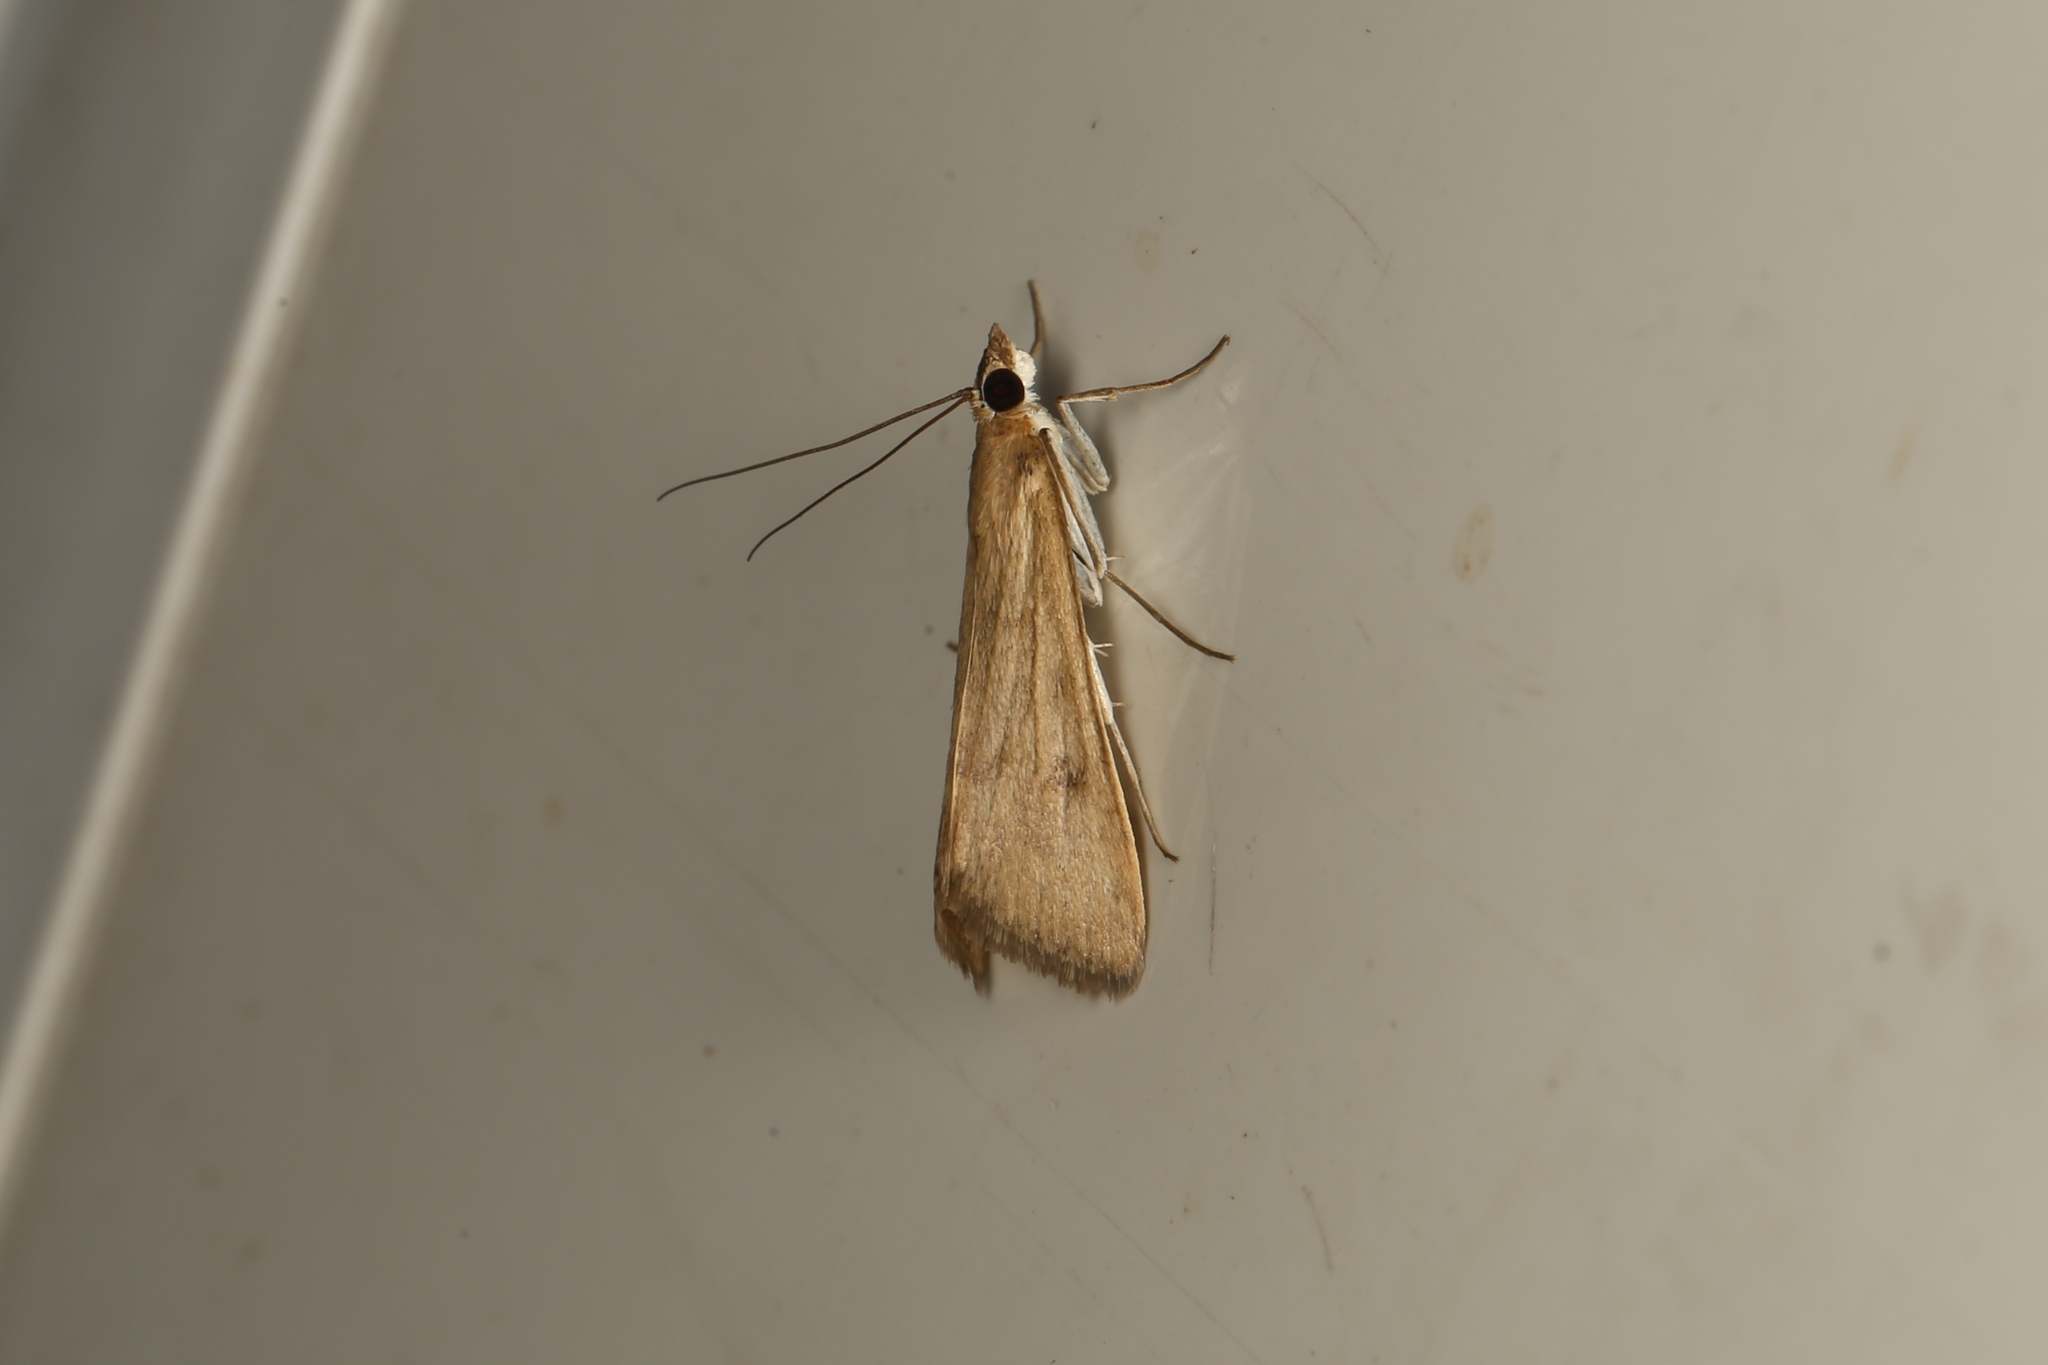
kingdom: Animalia
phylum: Arthropoda
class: Insecta
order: Lepidoptera
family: Crambidae
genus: Achyra
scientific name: Achyra affinitalis
